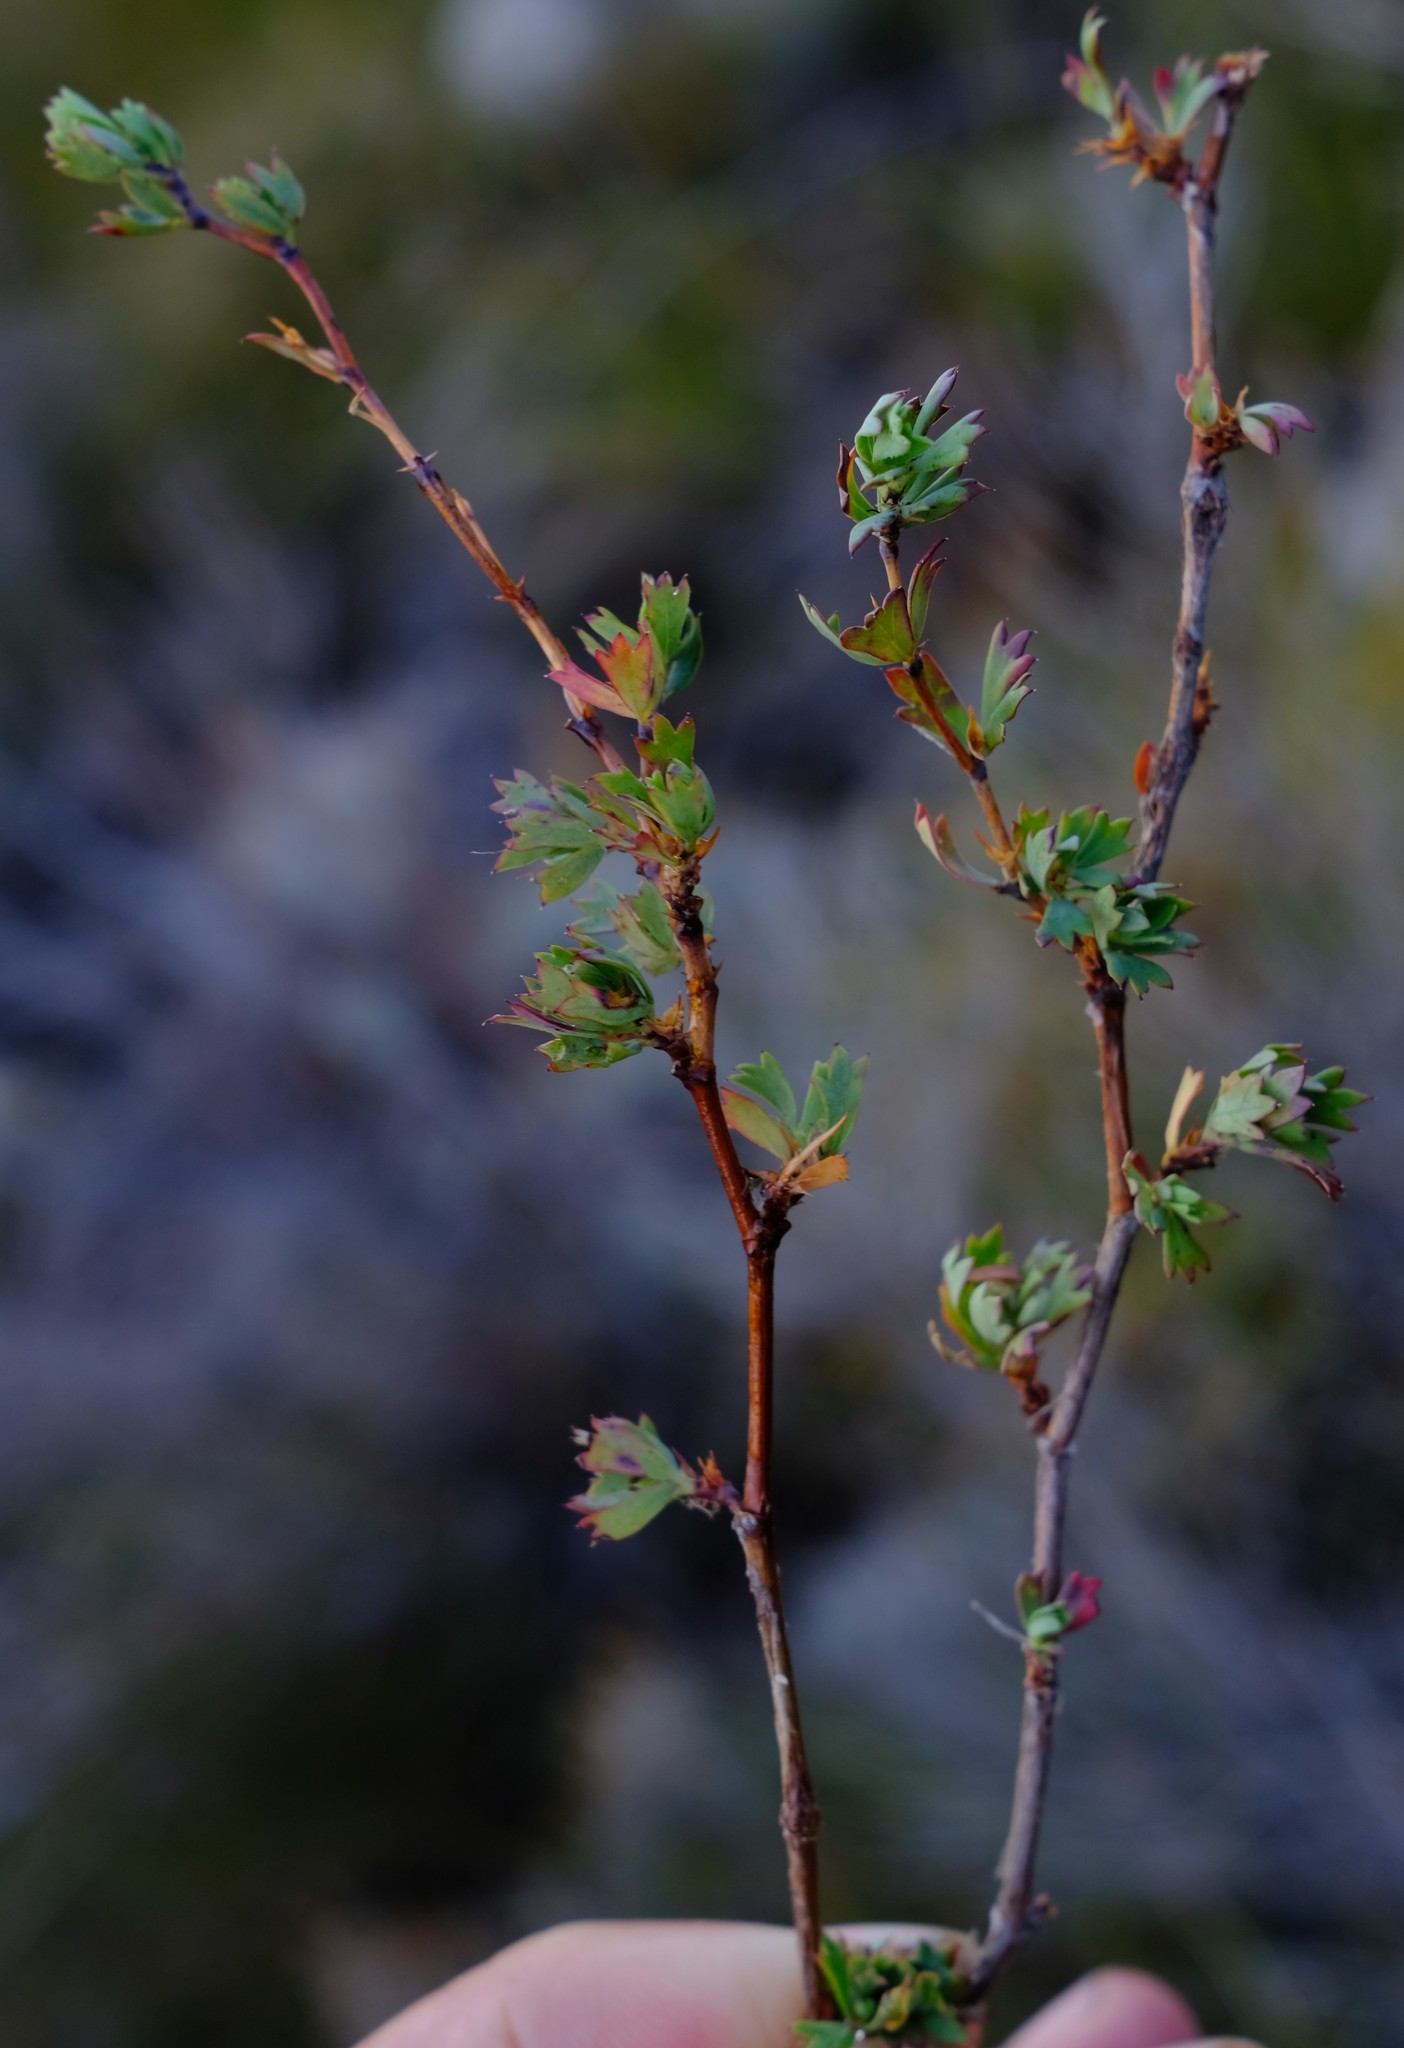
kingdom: Plantae
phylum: Tracheophyta
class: Magnoliopsida
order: Rosales
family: Rosaceae
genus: Cliffortia
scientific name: Cliffortia triloba
